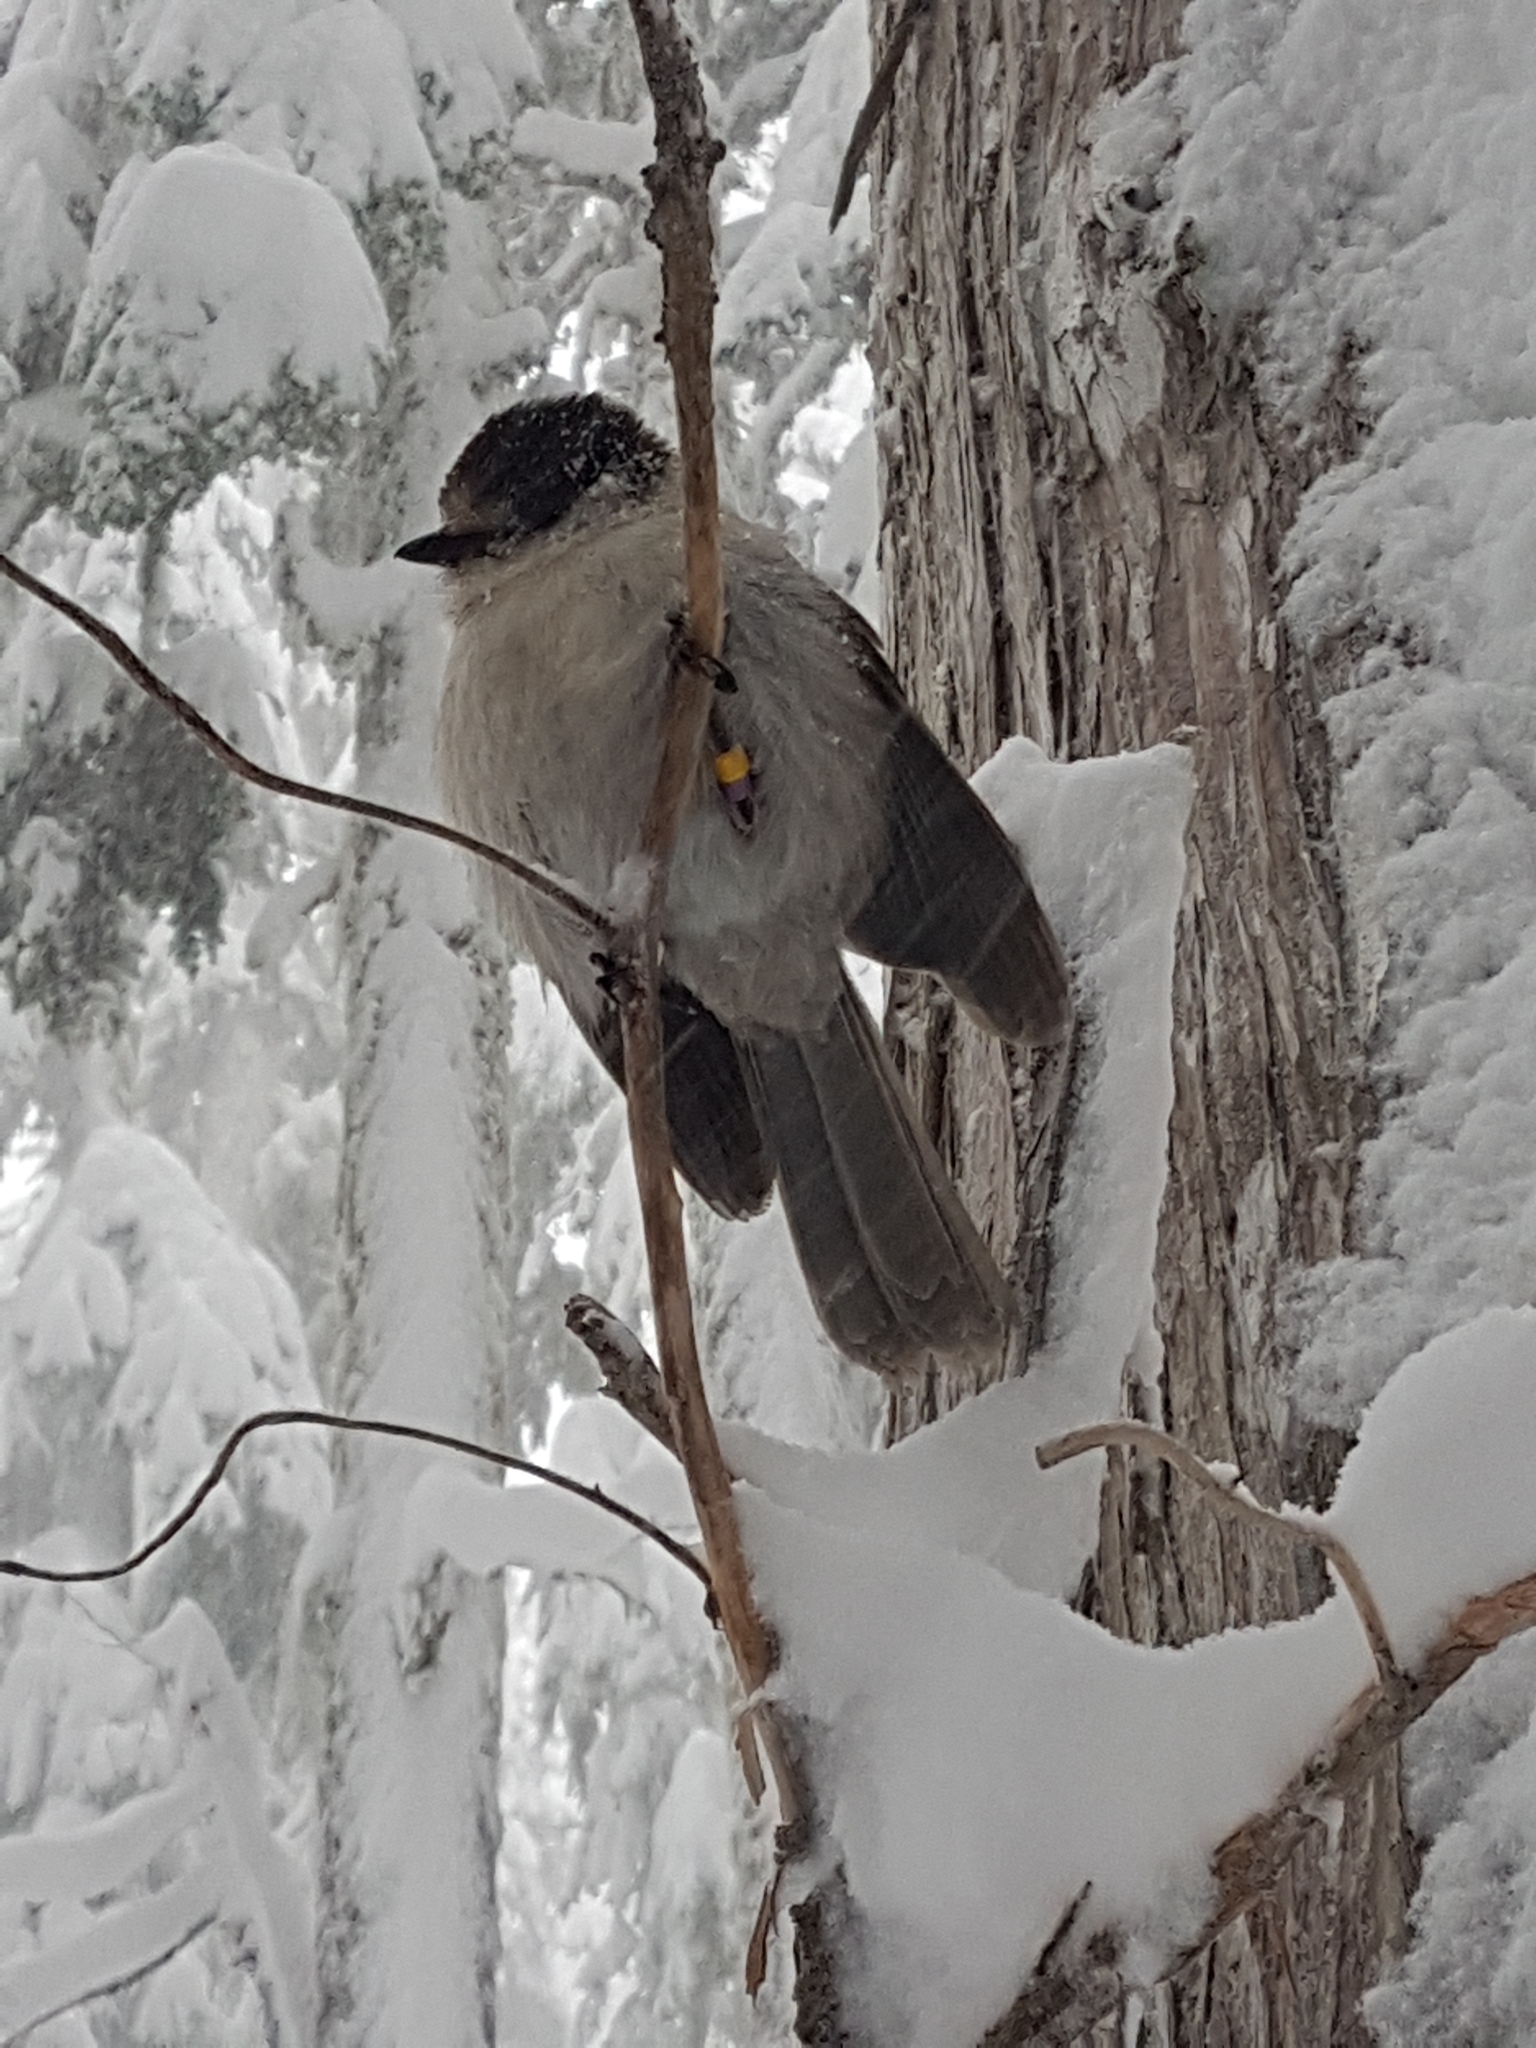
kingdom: Animalia
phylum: Chordata
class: Aves
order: Passeriformes
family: Corvidae
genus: Perisoreus
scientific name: Perisoreus canadensis
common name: Gray jay
